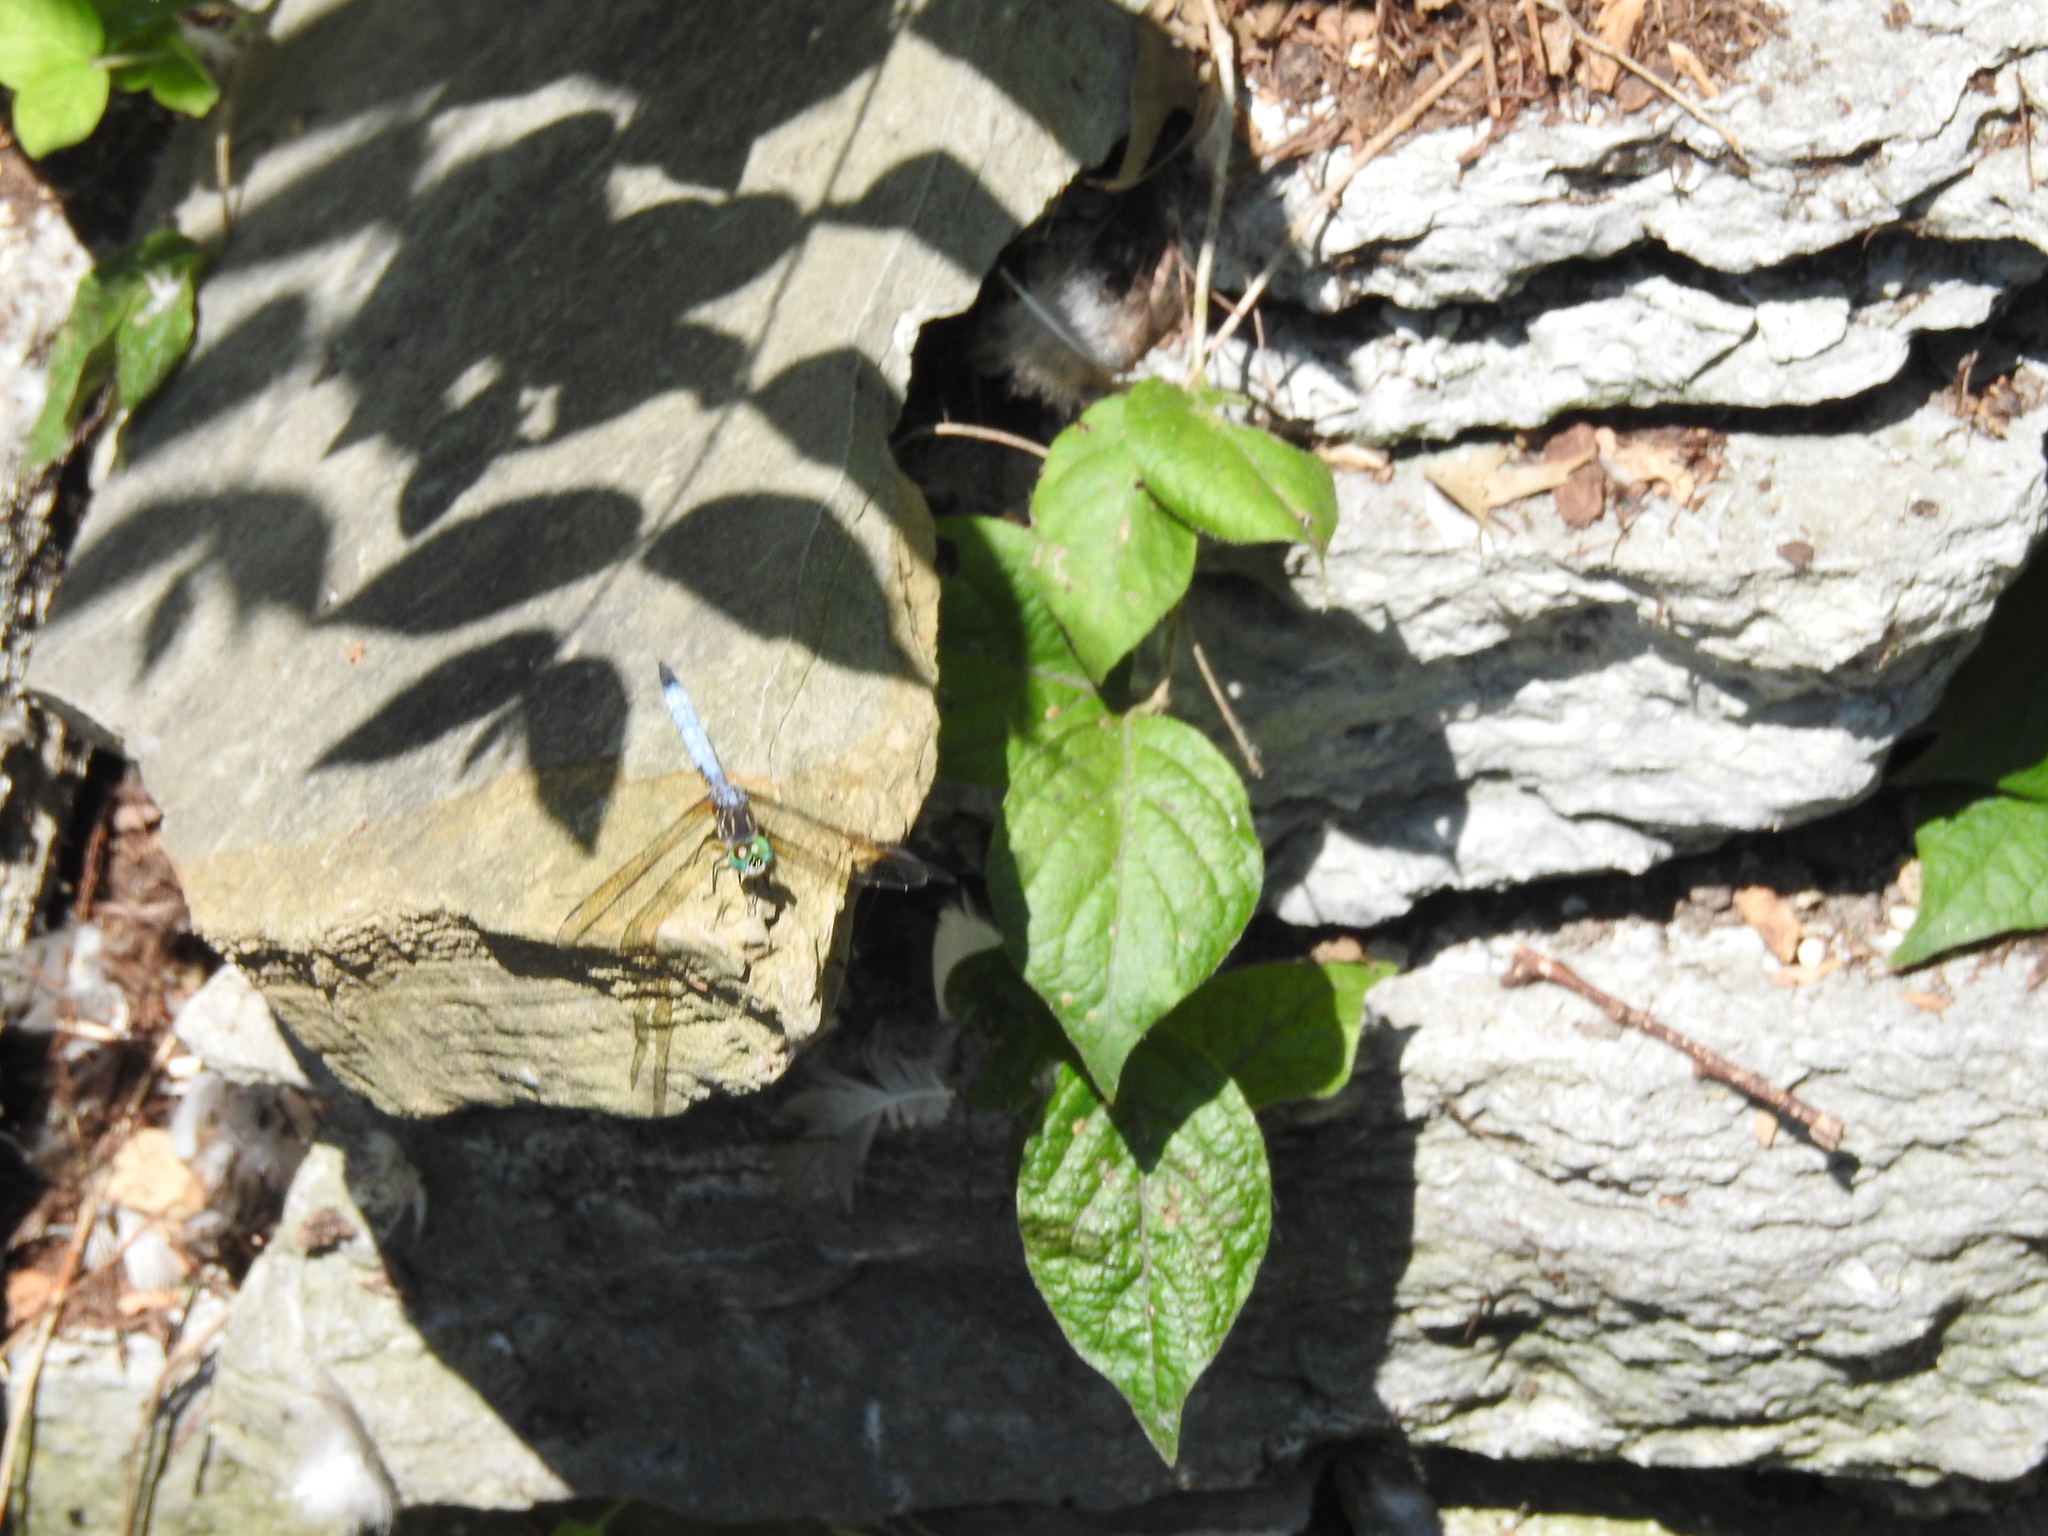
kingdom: Animalia
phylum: Arthropoda
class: Insecta
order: Odonata
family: Libellulidae
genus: Pachydiplax
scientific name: Pachydiplax longipennis
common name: Blue dasher
